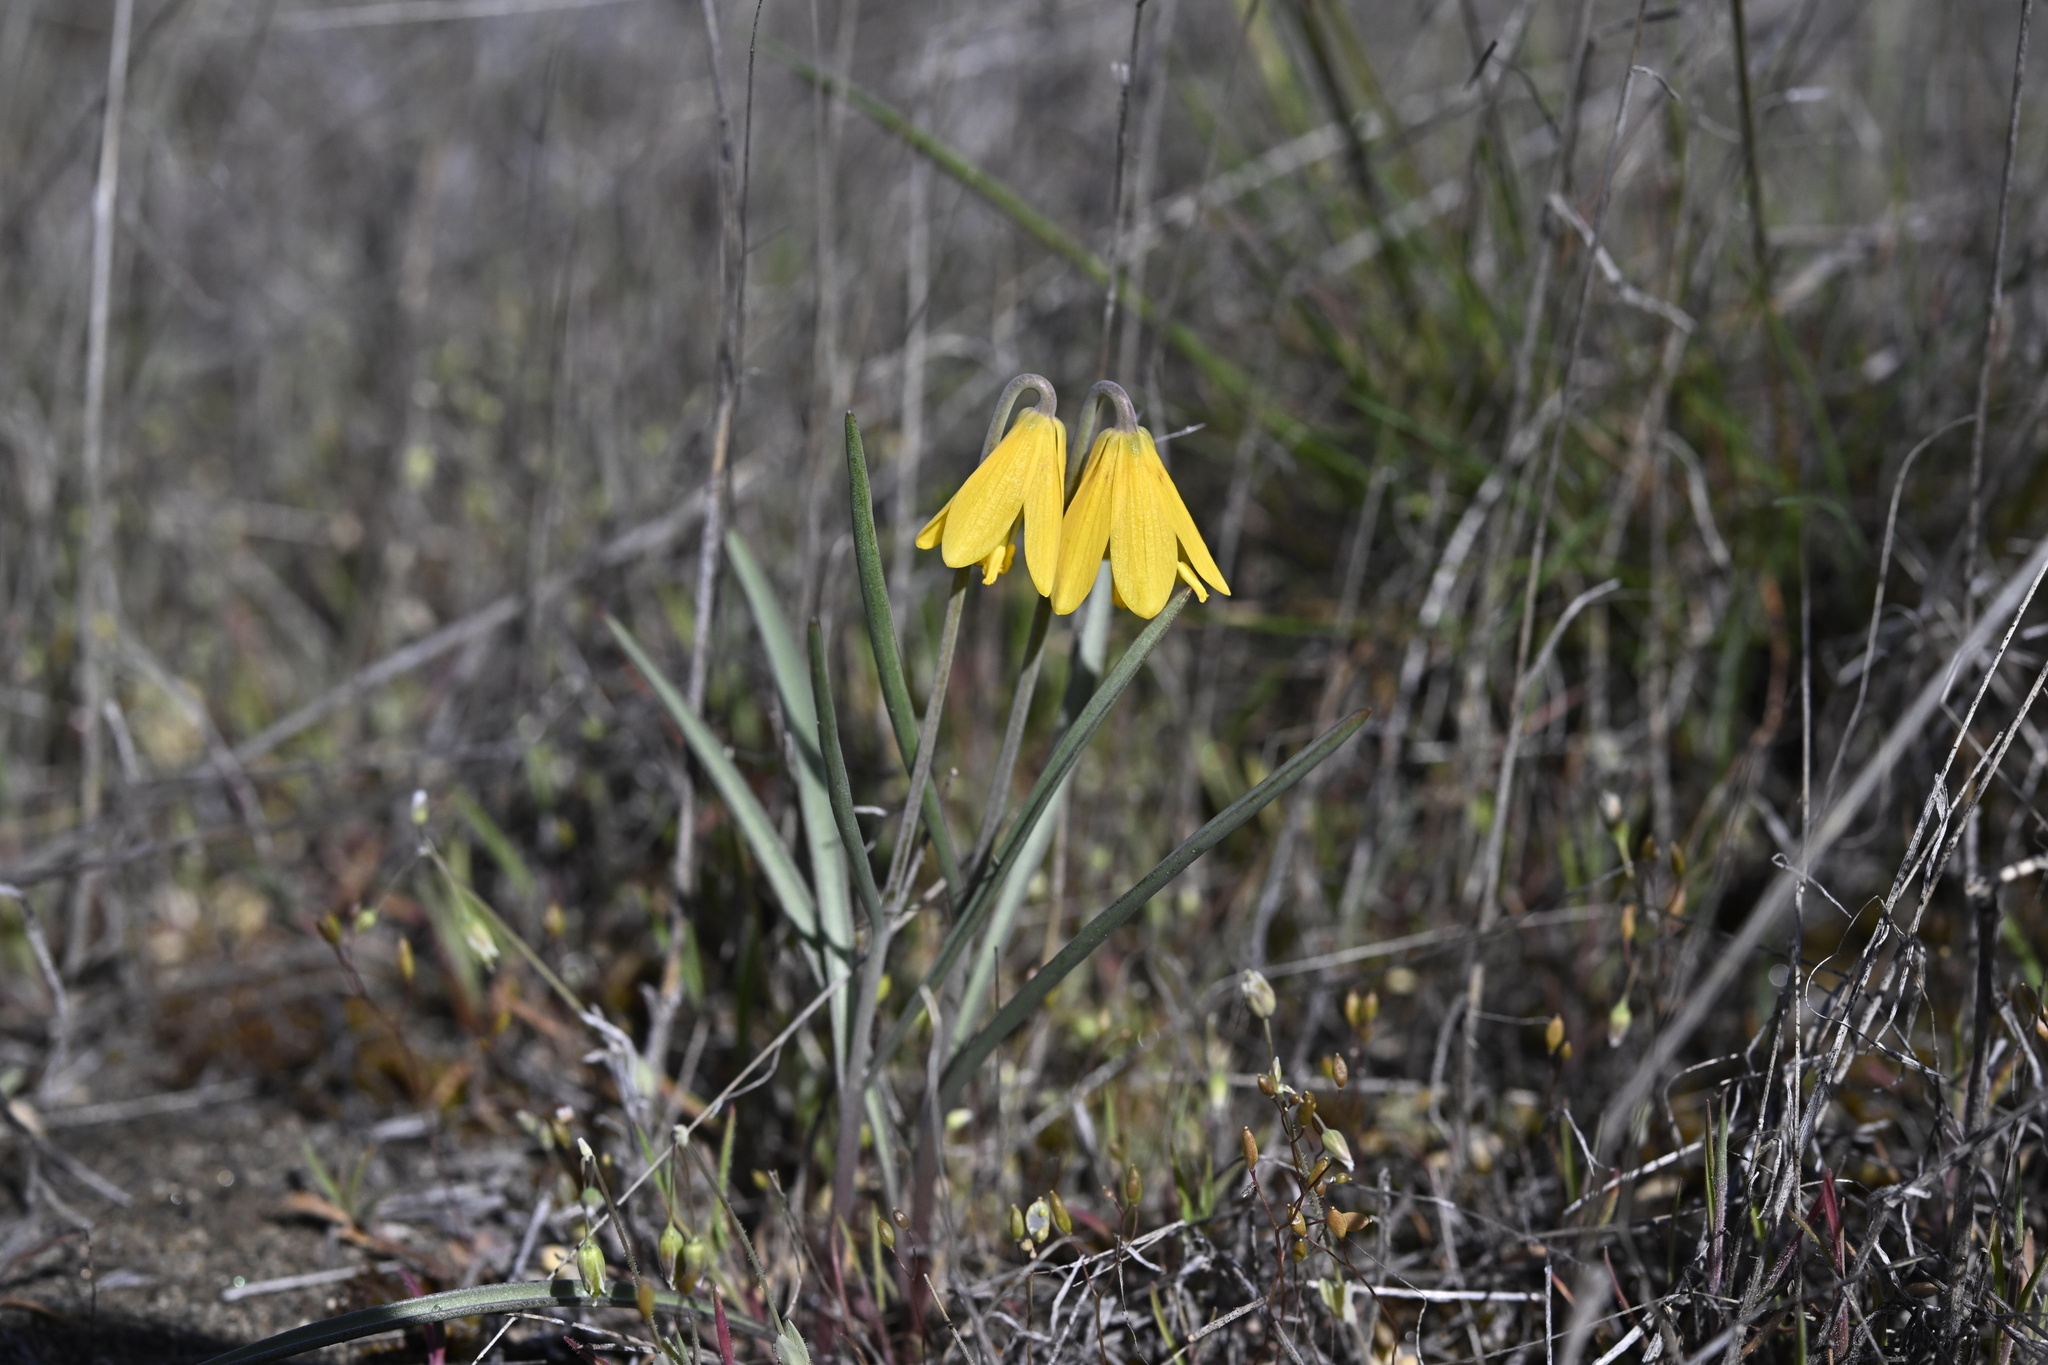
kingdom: Plantae
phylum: Tracheophyta
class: Liliopsida
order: Liliales
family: Liliaceae
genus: Fritillaria
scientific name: Fritillaria pudica
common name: Yellow fritillary
